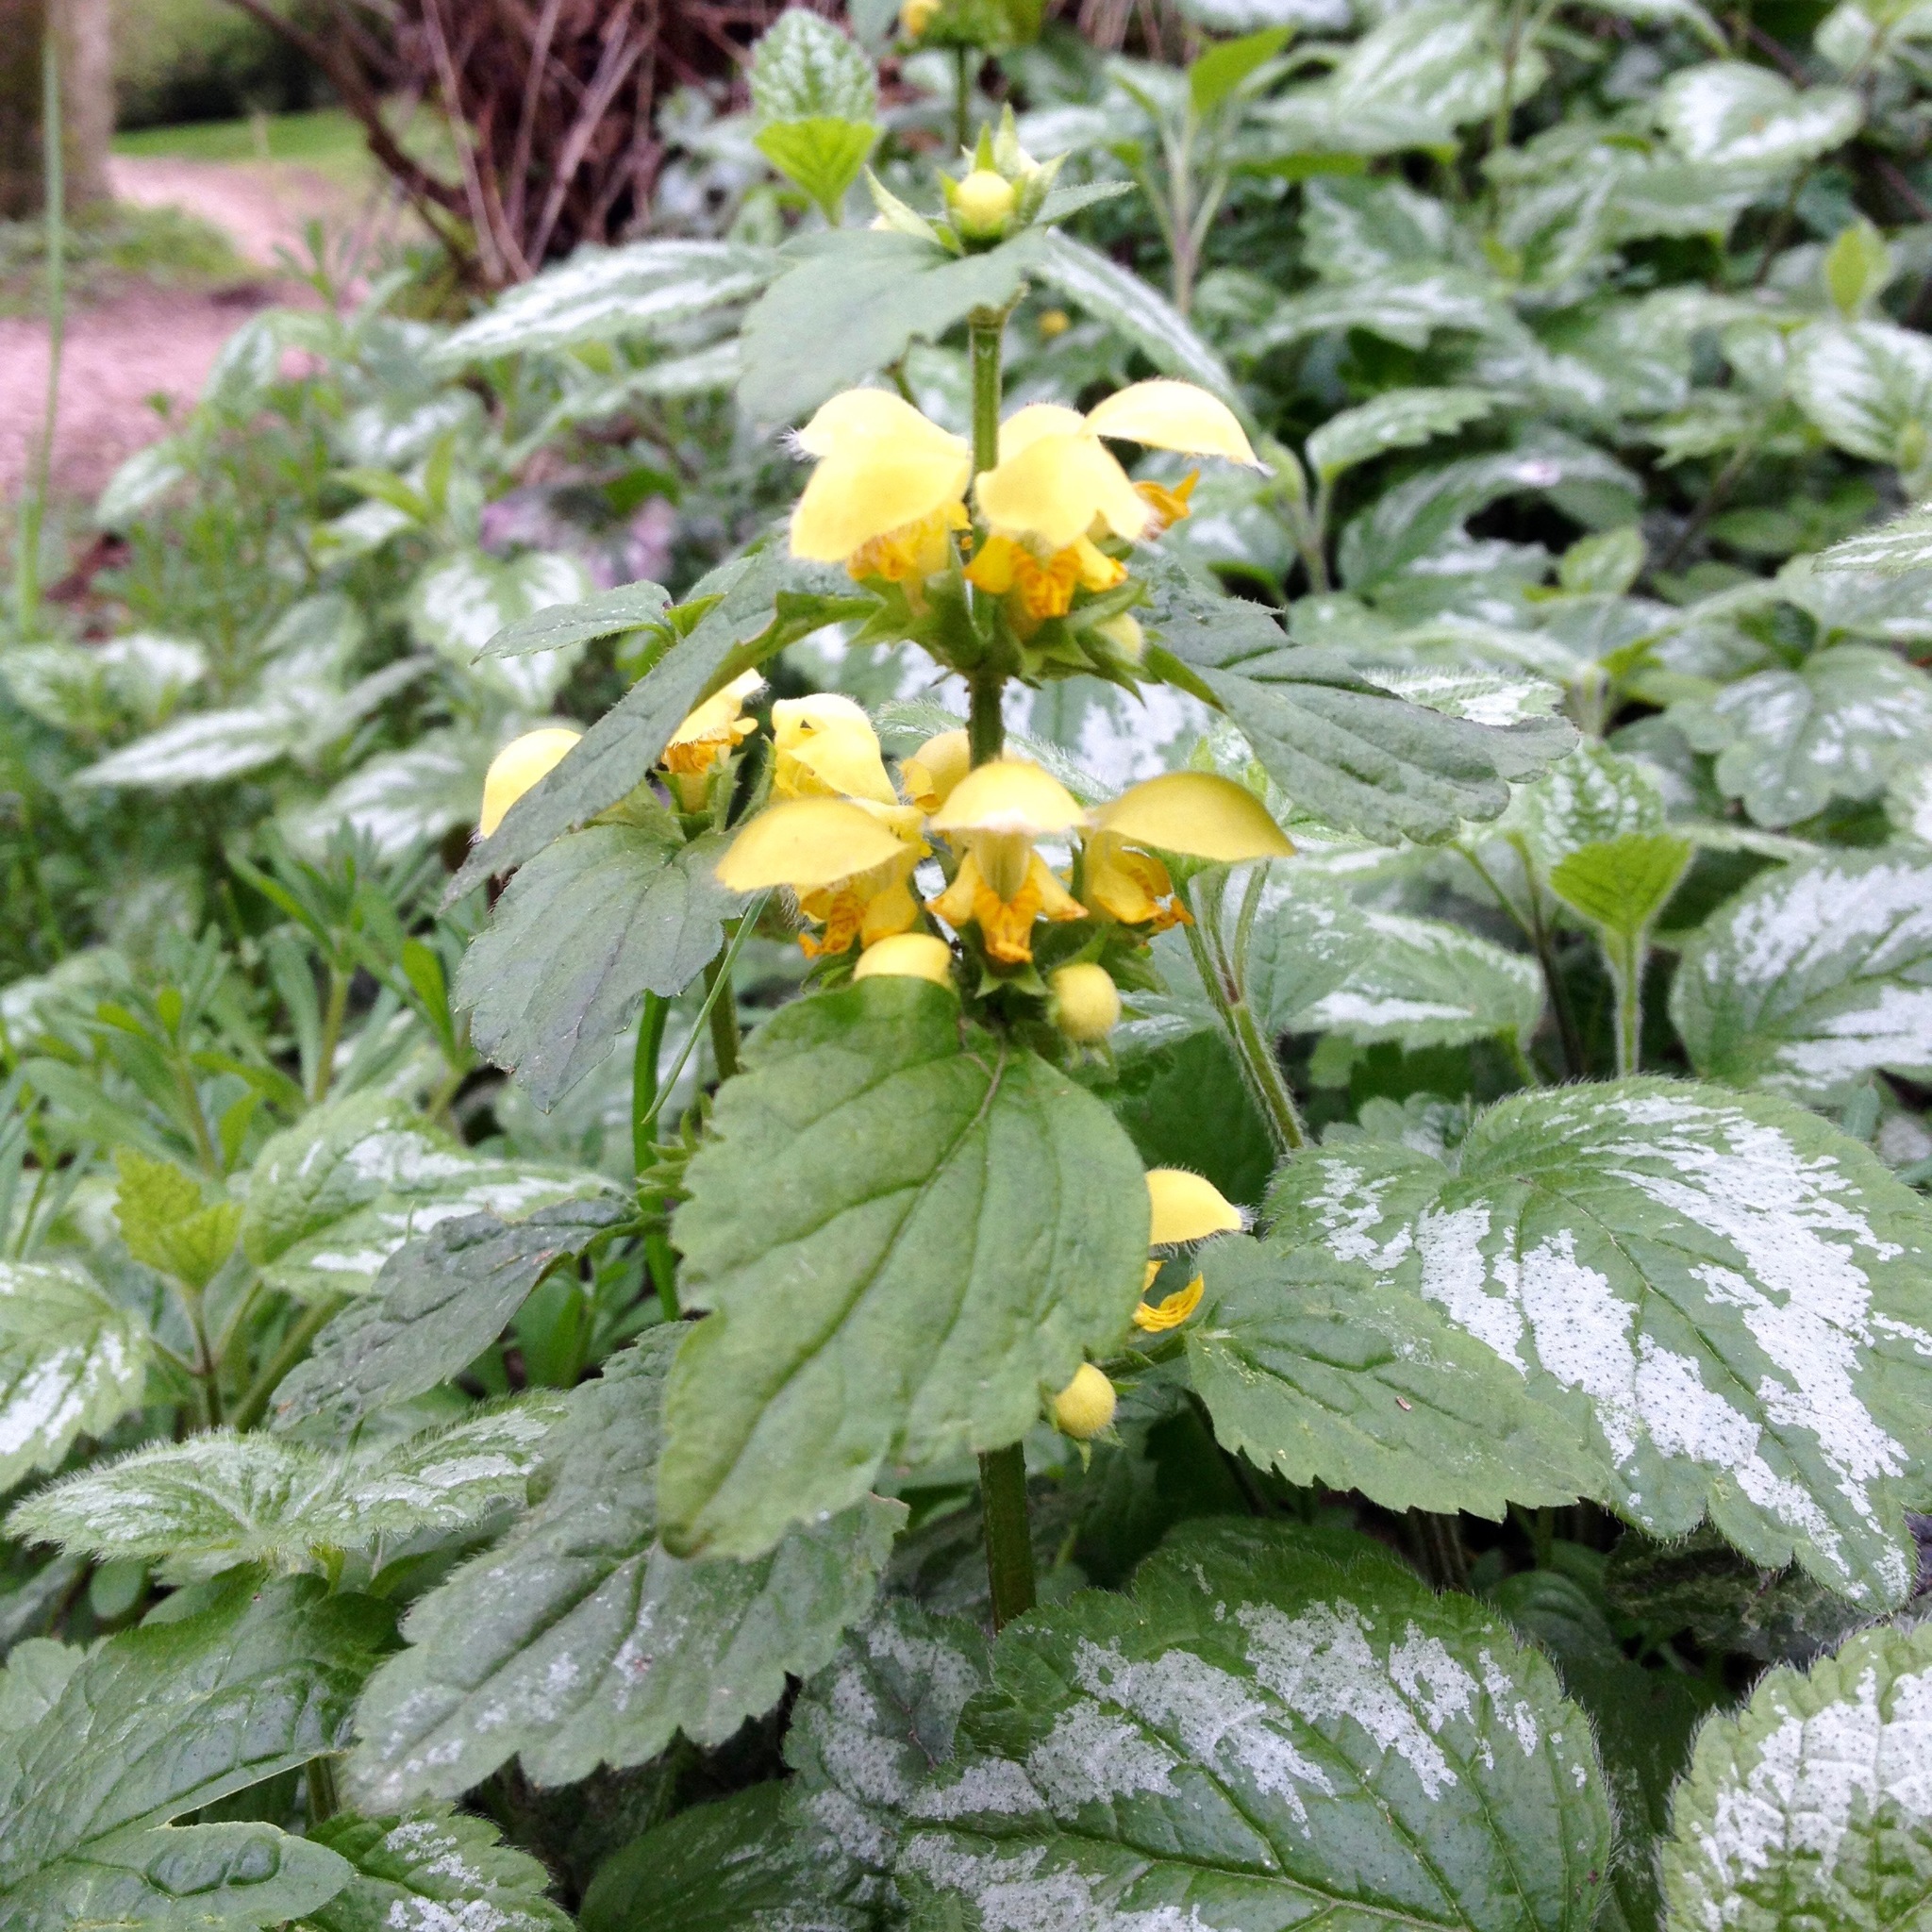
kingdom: Plantae
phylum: Tracheophyta
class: Magnoliopsida
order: Lamiales
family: Lamiaceae
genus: Lamium
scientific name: Lamium galeobdolon
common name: Yellow archangel
